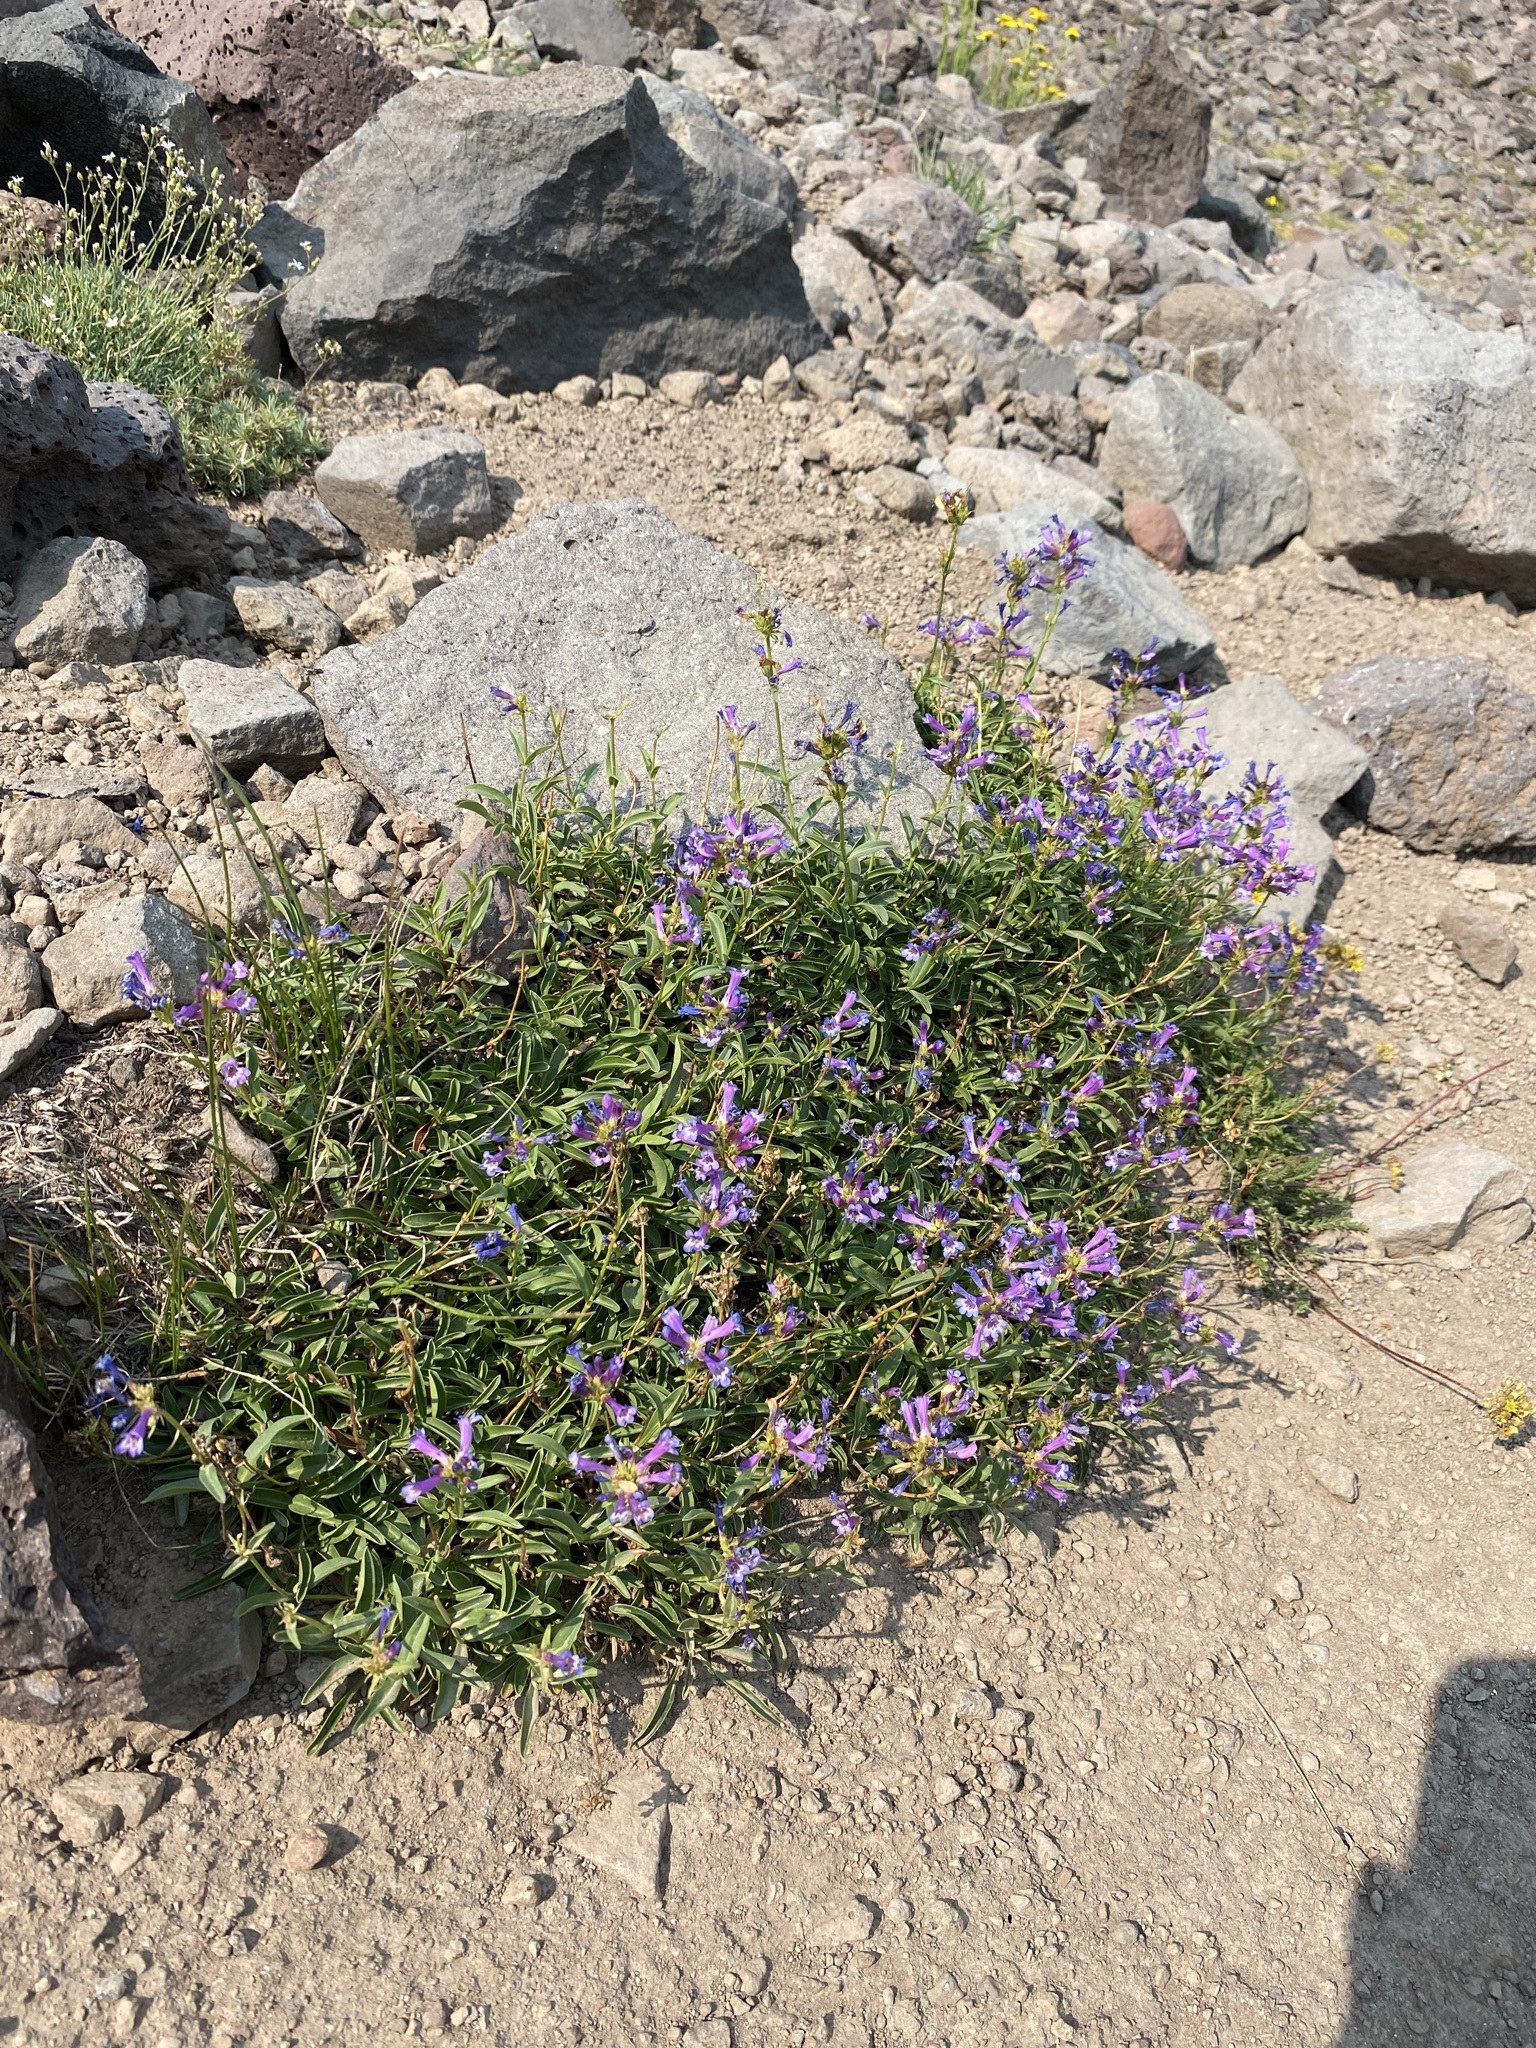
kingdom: Plantae
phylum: Tracheophyta
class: Magnoliopsida
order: Lamiales
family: Plantaginaceae
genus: Penstemon
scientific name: Penstemon rydbergii
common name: Rydberg's beardtongue
